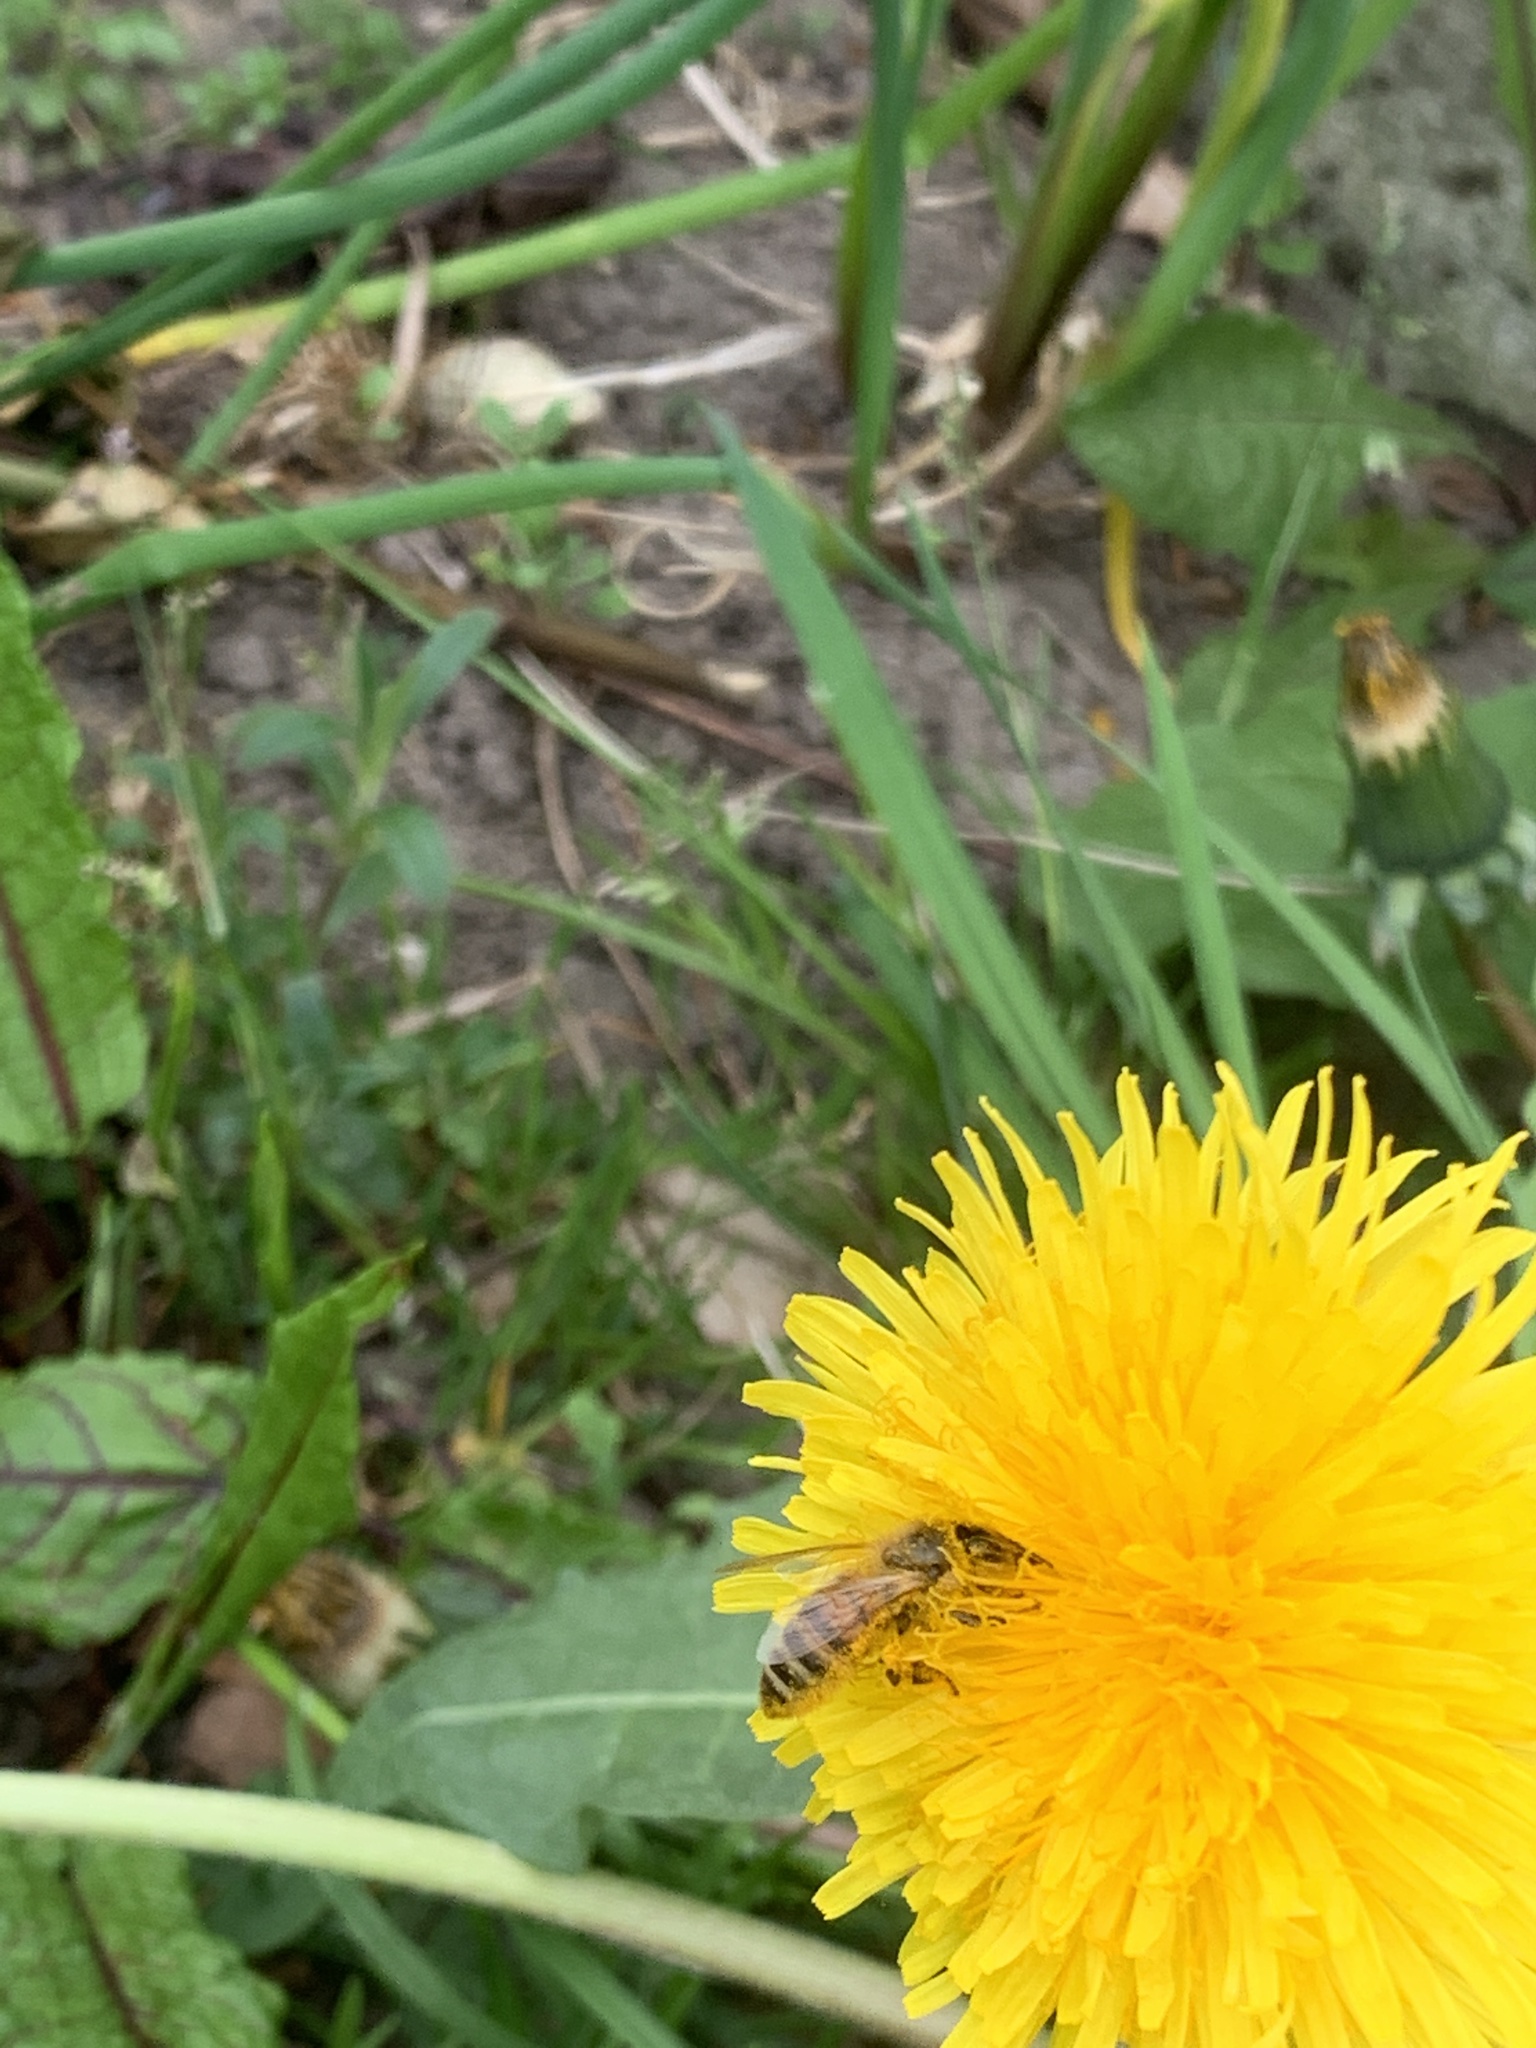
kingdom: Animalia
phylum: Arthropoda
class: Insecta
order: Hymenoptera
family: Apidae
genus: Apis
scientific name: Apis mellifera
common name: Honey bee
